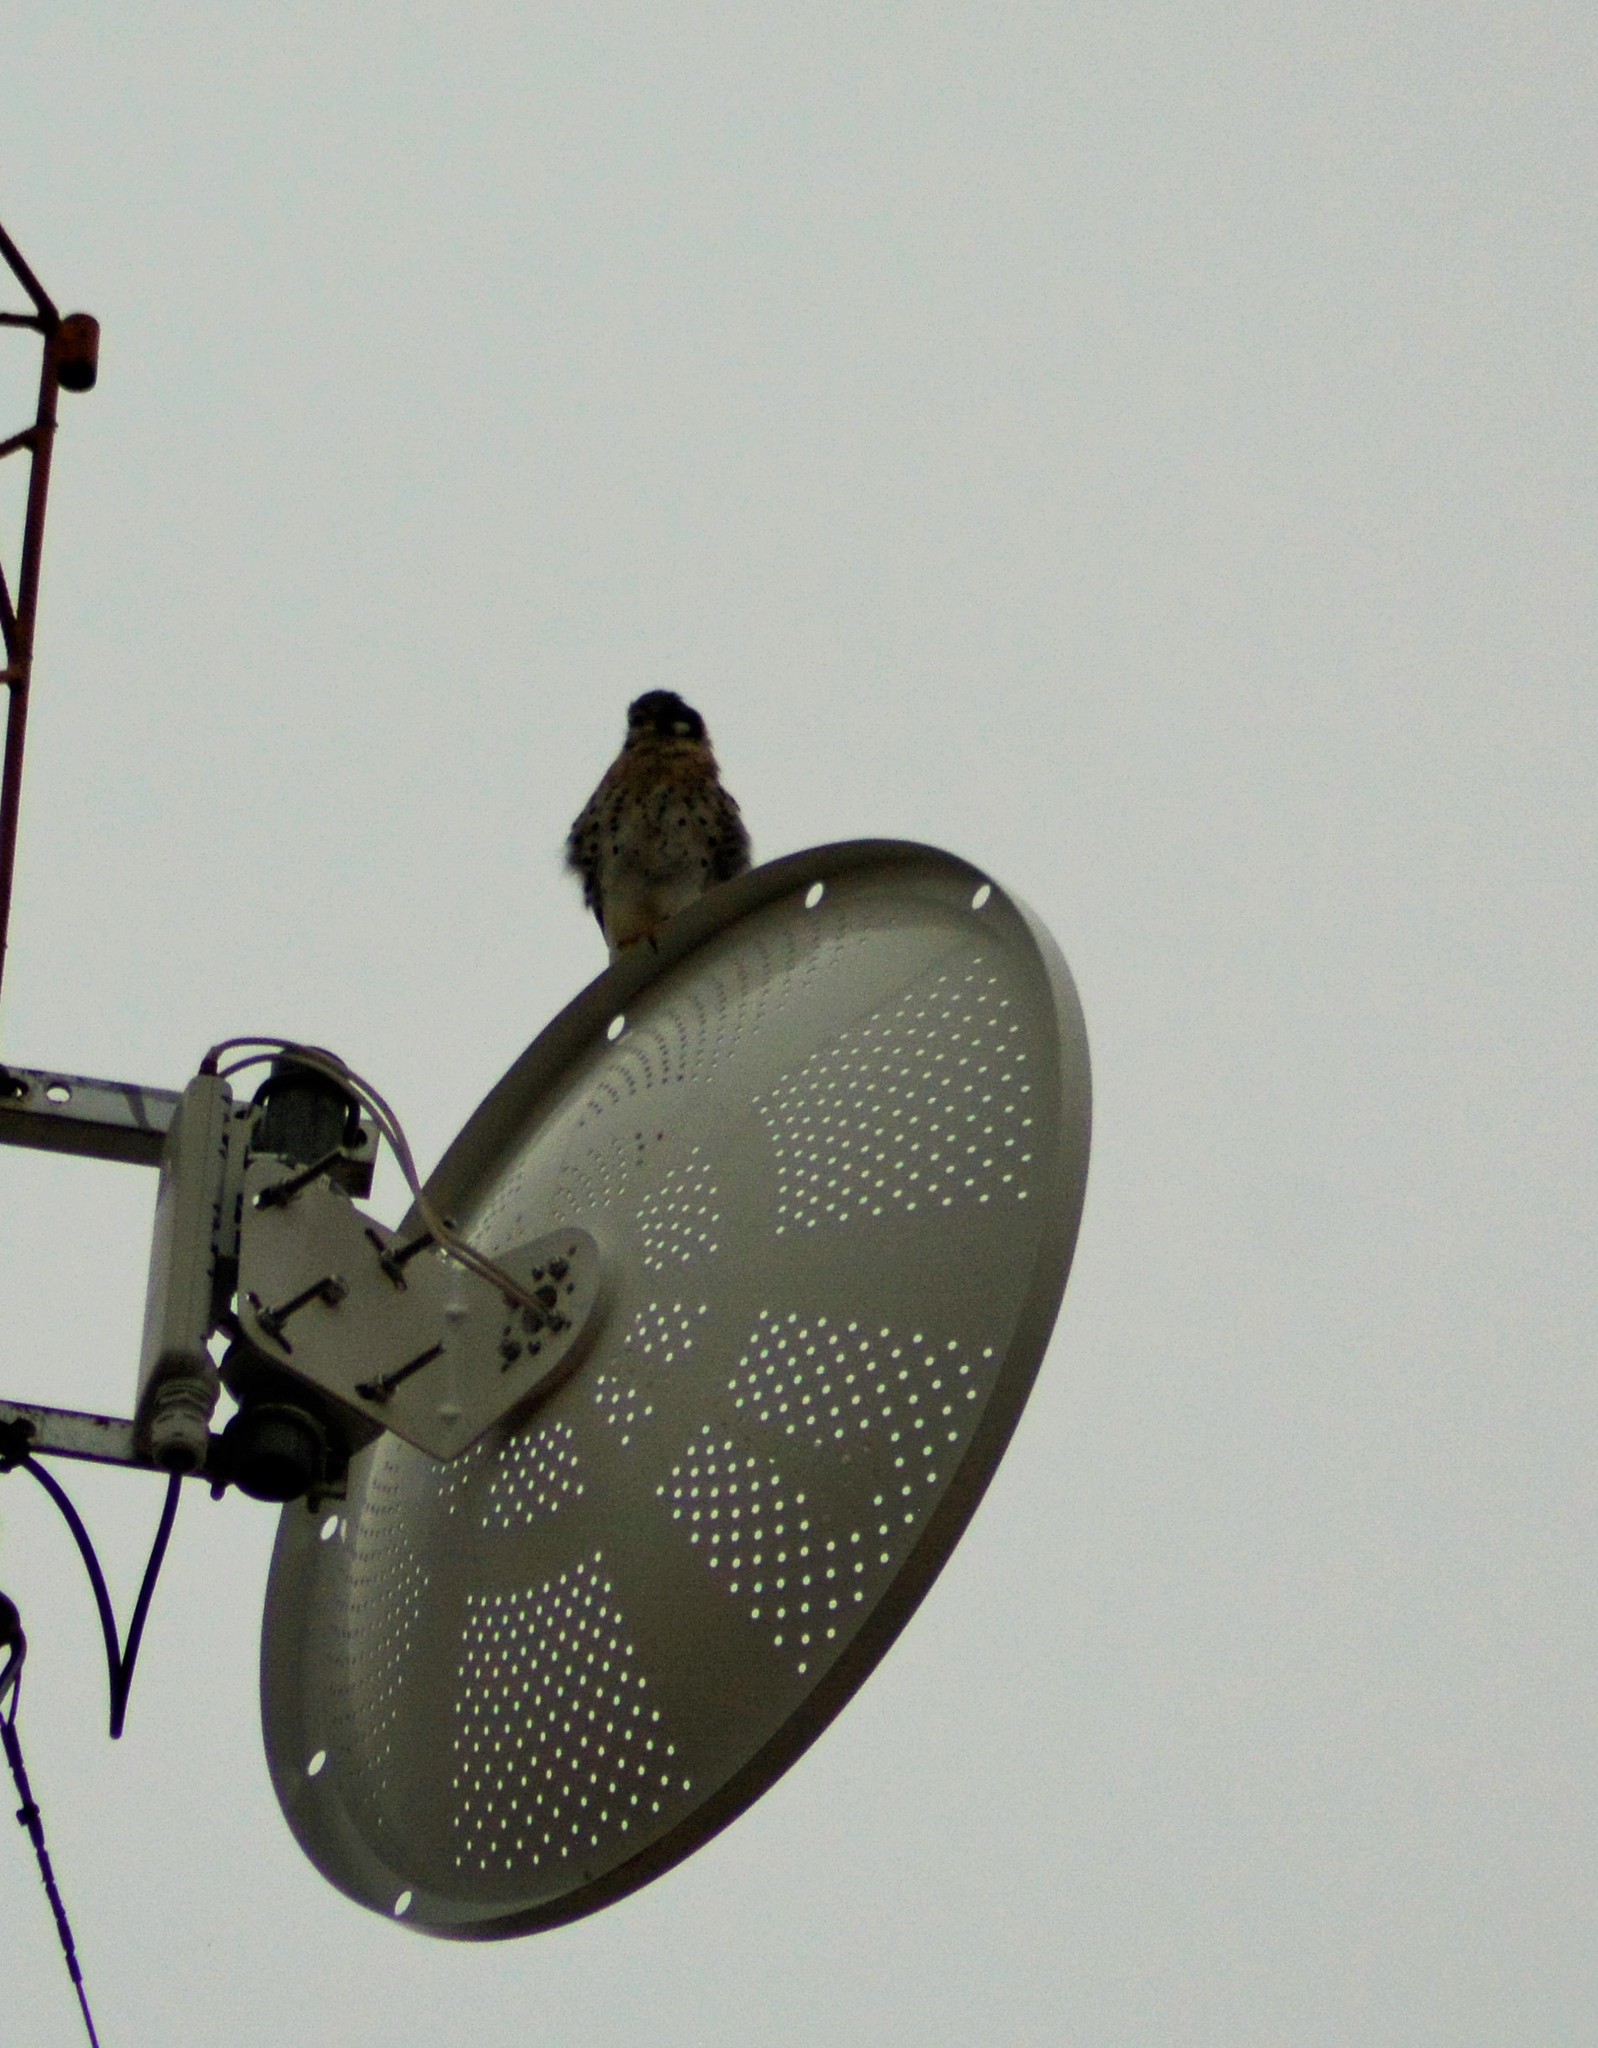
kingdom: Animalia
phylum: Chordata
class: Aves
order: Falconiformes
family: Falconidae
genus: Falco
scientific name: Falco sparverius
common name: American kestrel
